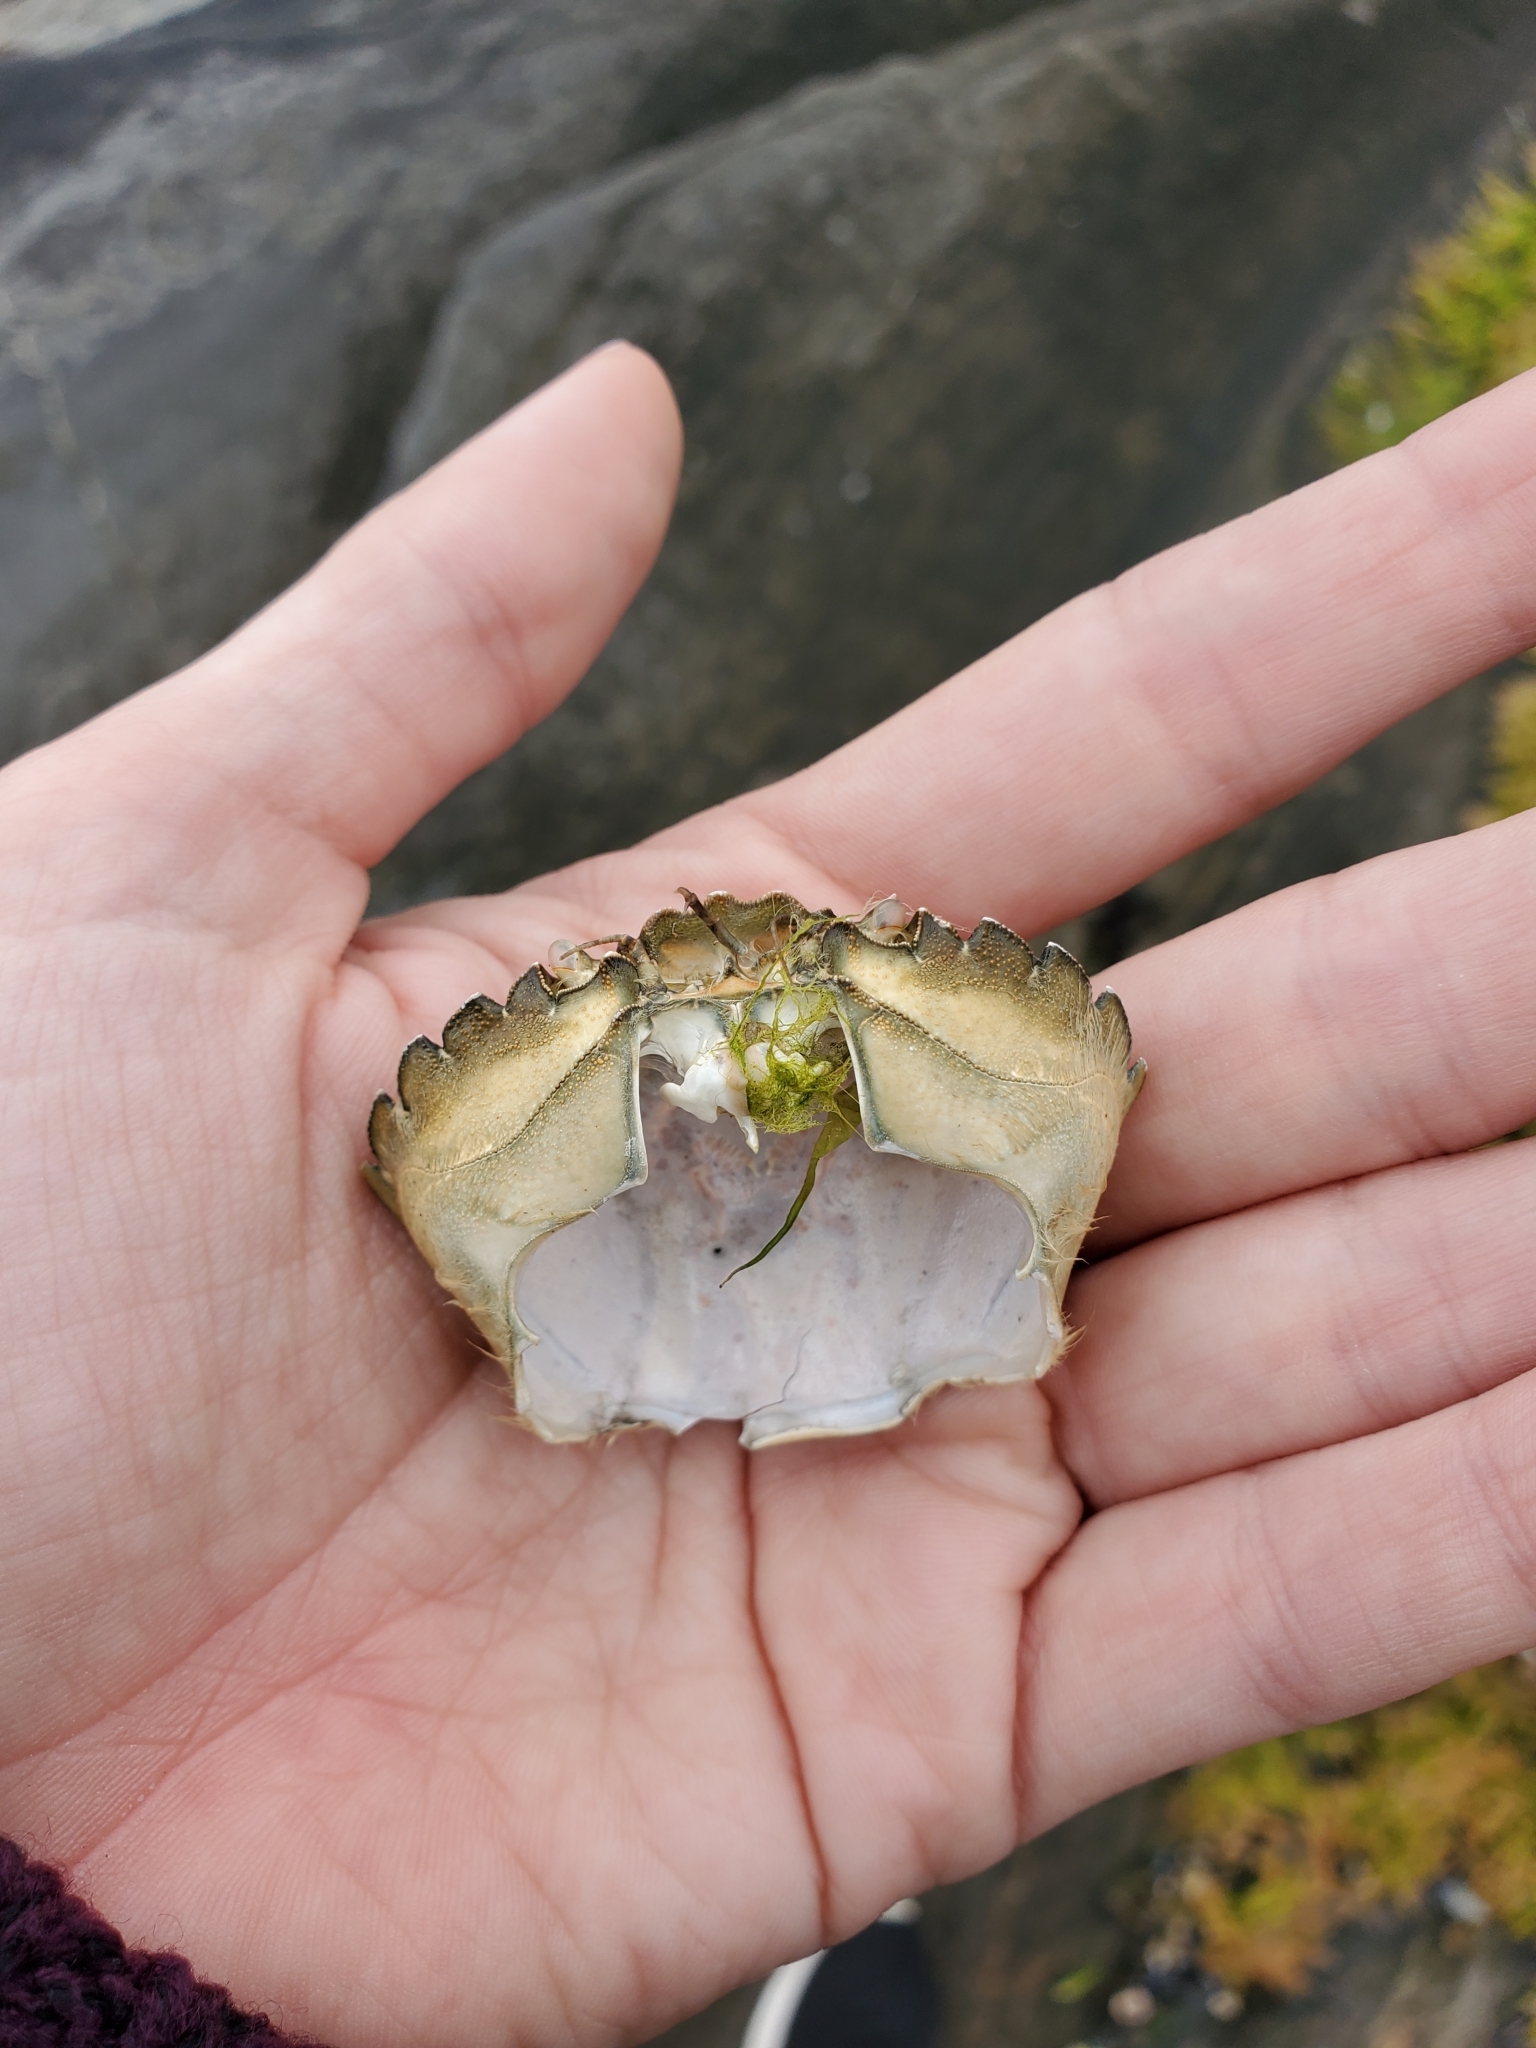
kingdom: Animalia
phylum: Arthropoda
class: Malacostraca
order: Decapoda
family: Carcinidae
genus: Carcinus
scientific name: Carcinus maenas
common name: European green crab
